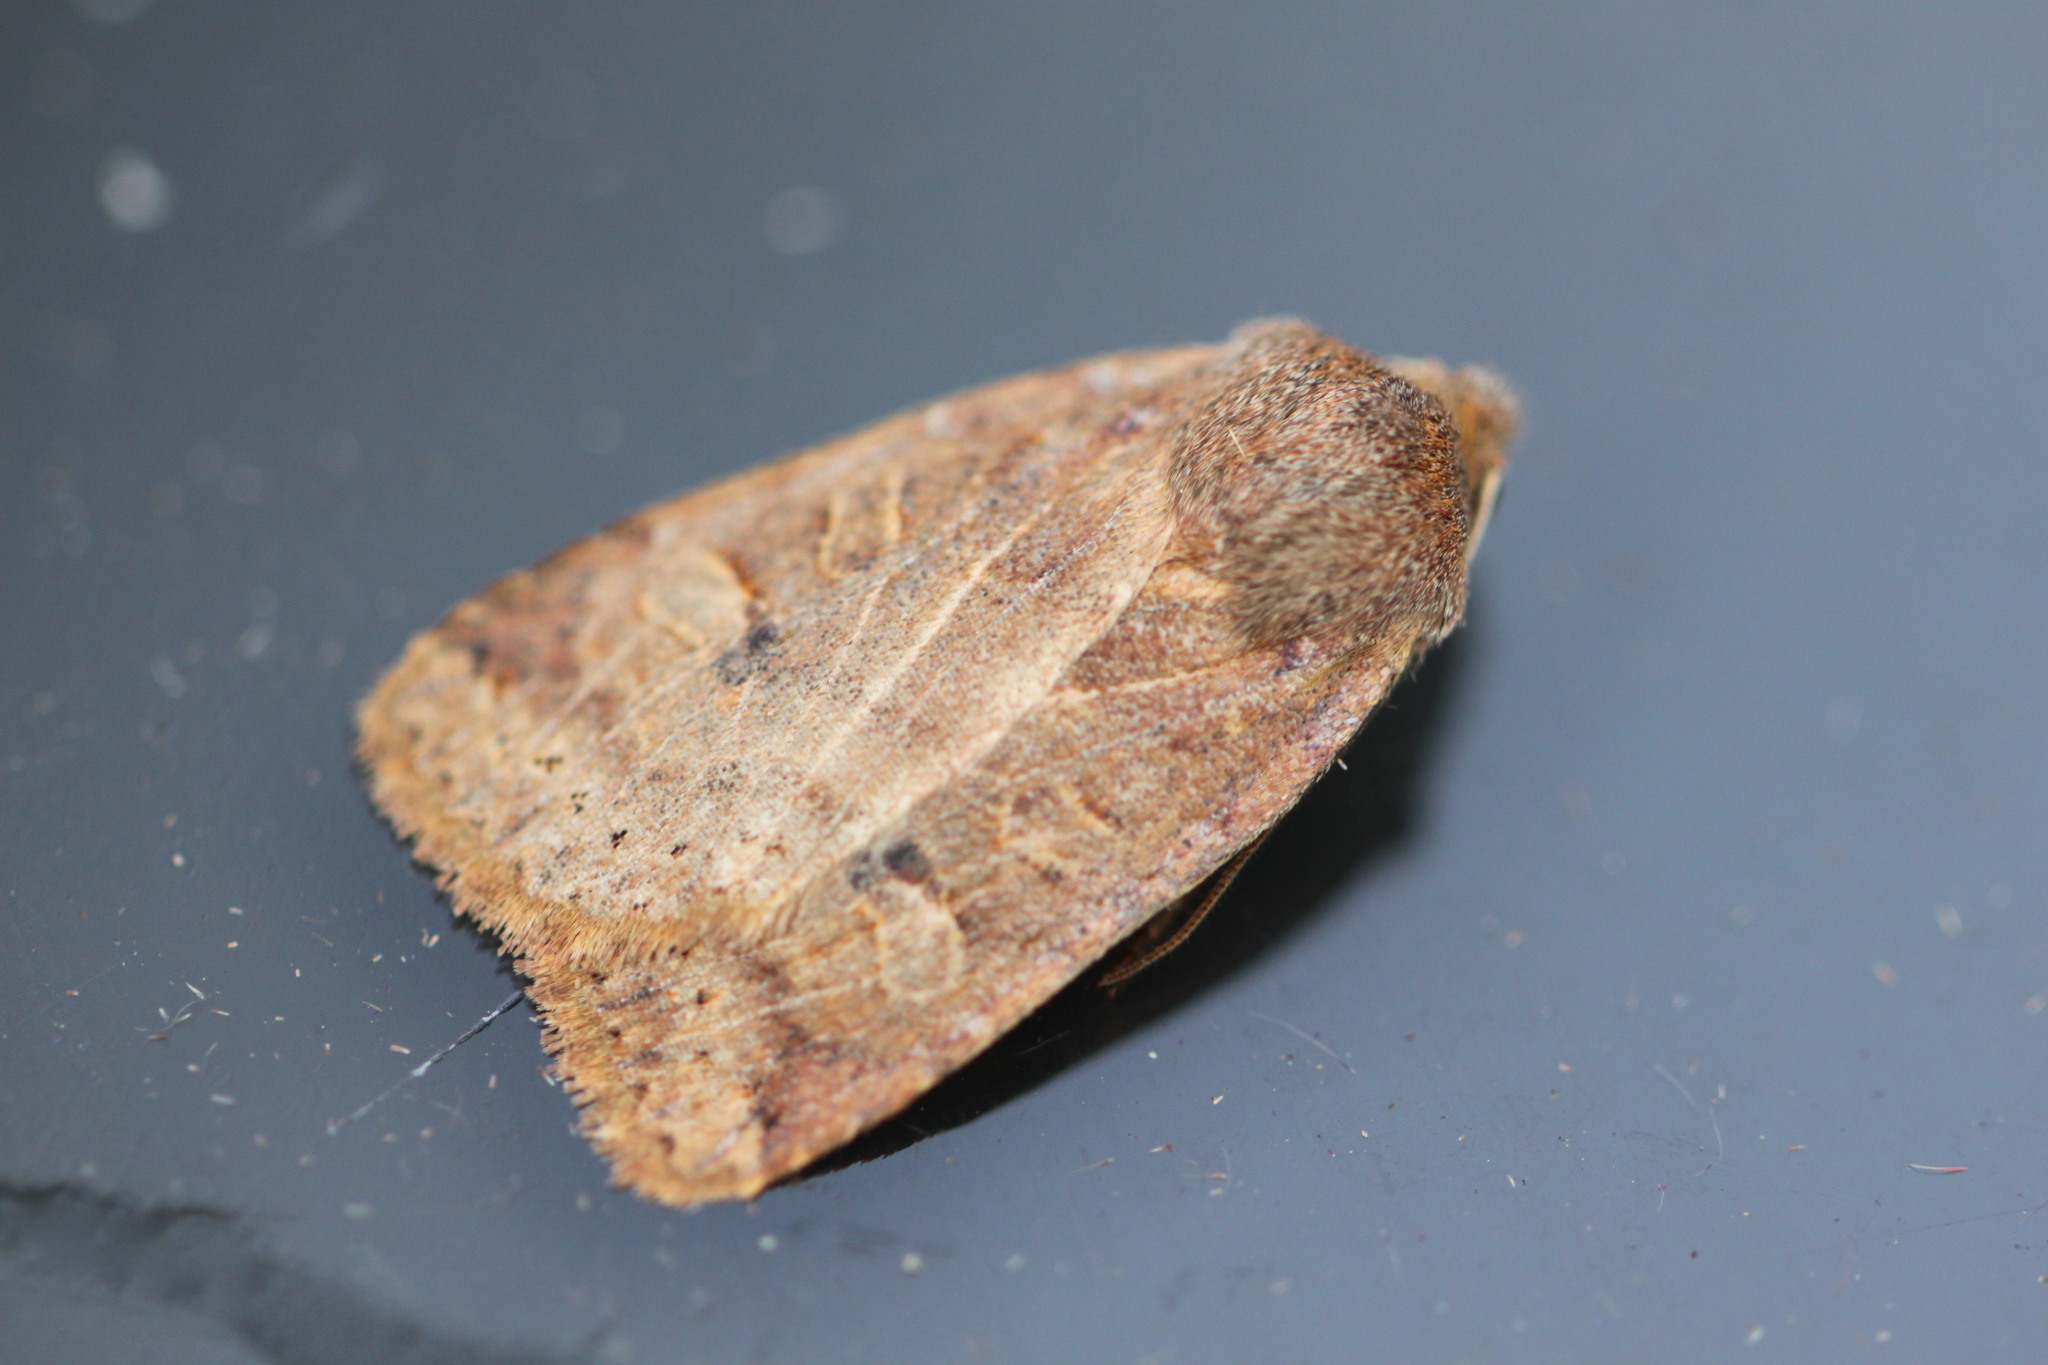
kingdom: Animalia
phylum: Arthropoda
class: Insecta
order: Lepidoptera
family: Noctuidae
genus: Conistra
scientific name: Conistra vaccinii
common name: Chestnut
